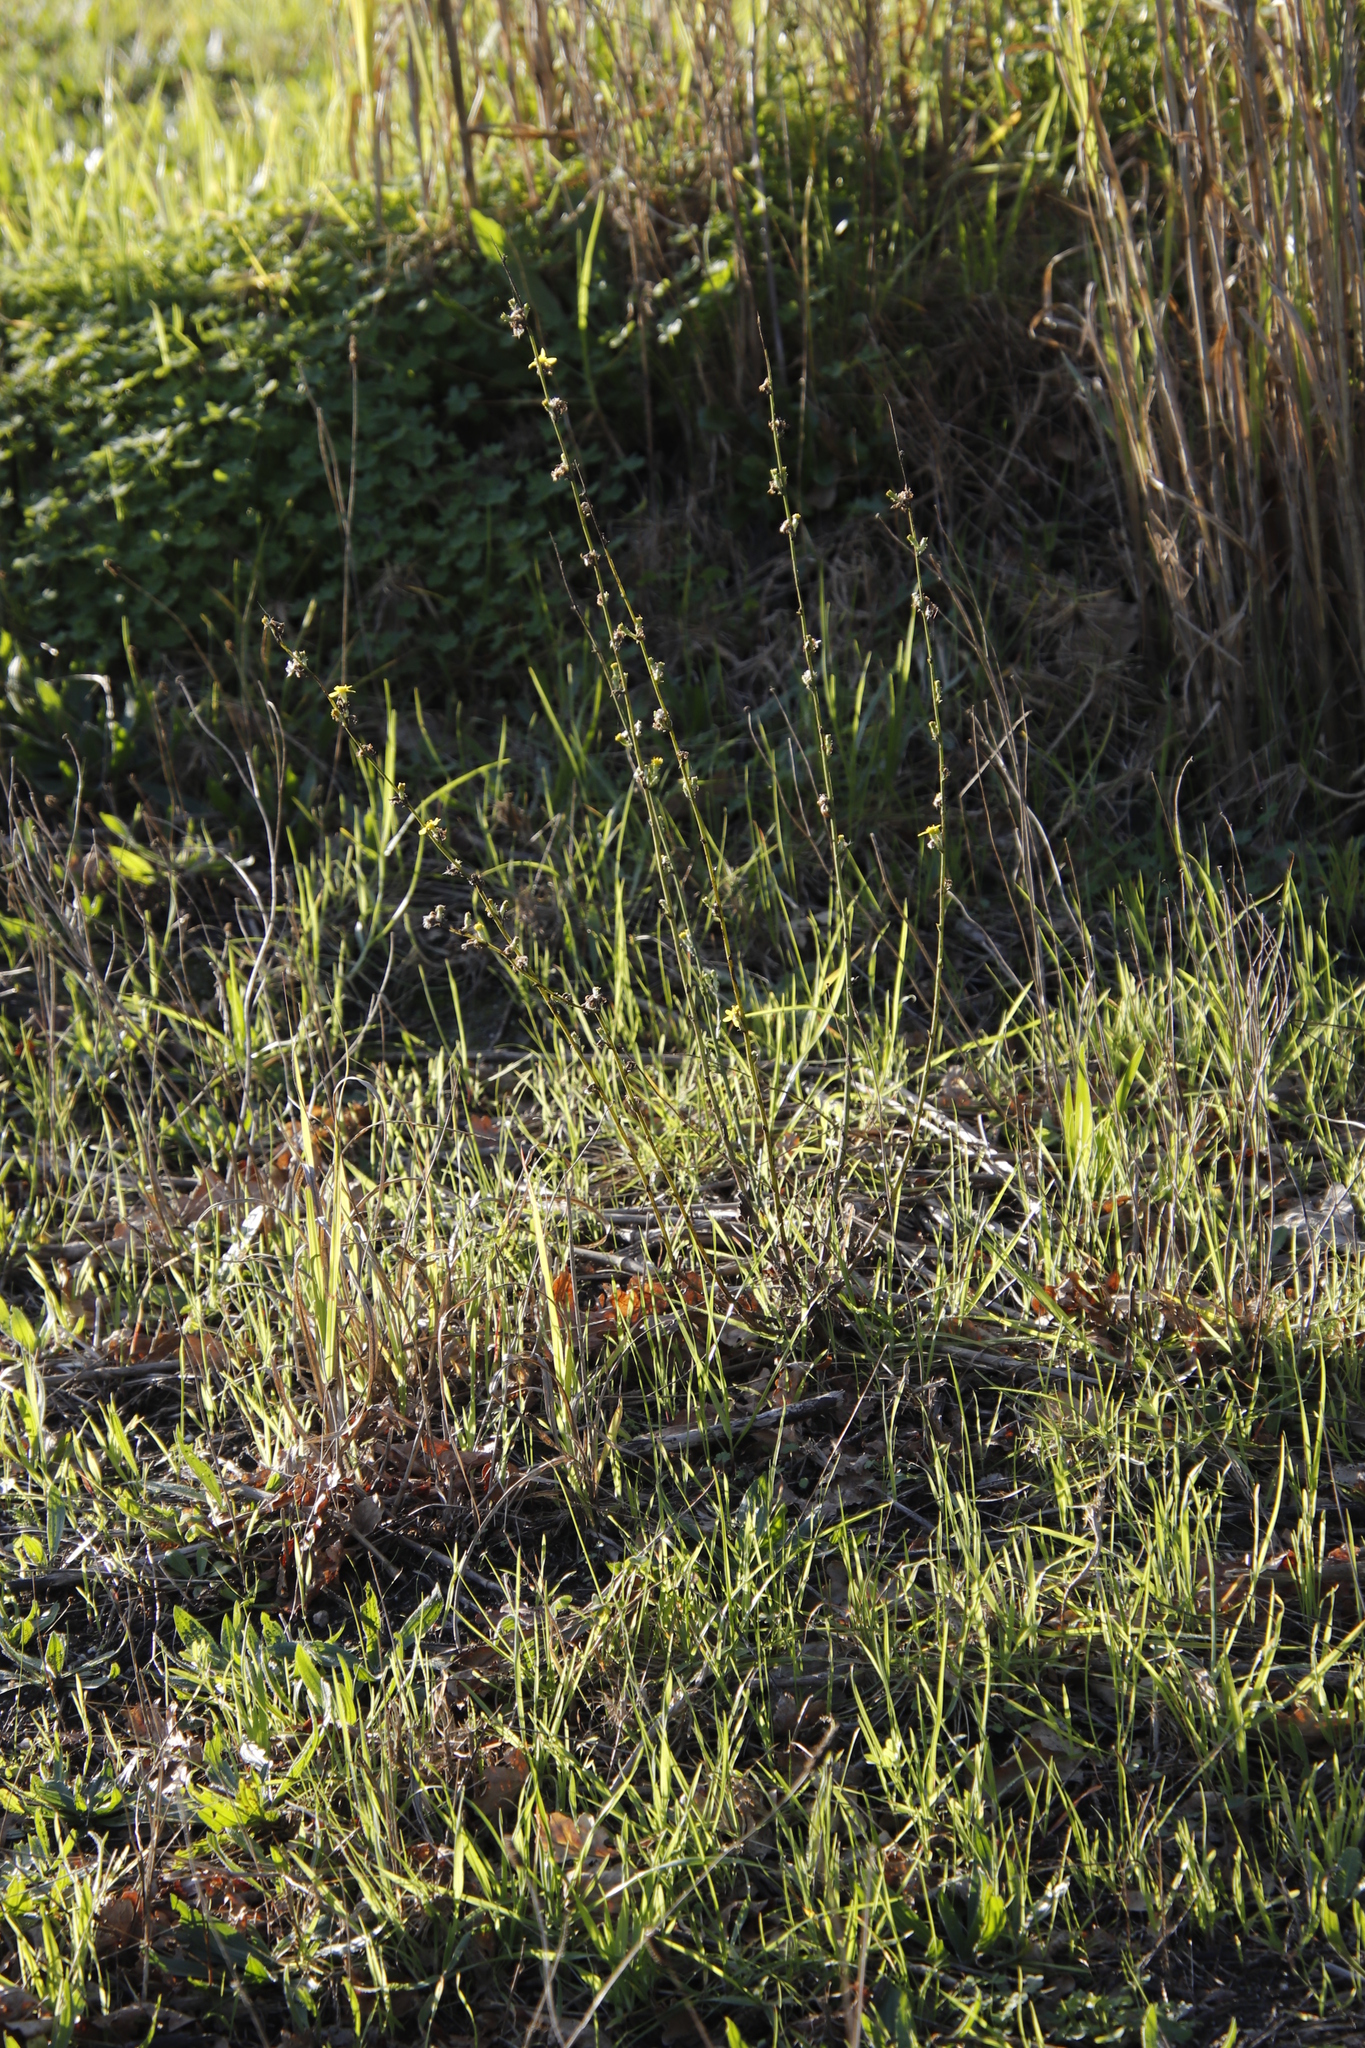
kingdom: Plantae
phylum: Tracheophyta
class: Magnoliopsida
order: Asterales
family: Asteraceae
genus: Senecio
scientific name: Senecio pubigerus
